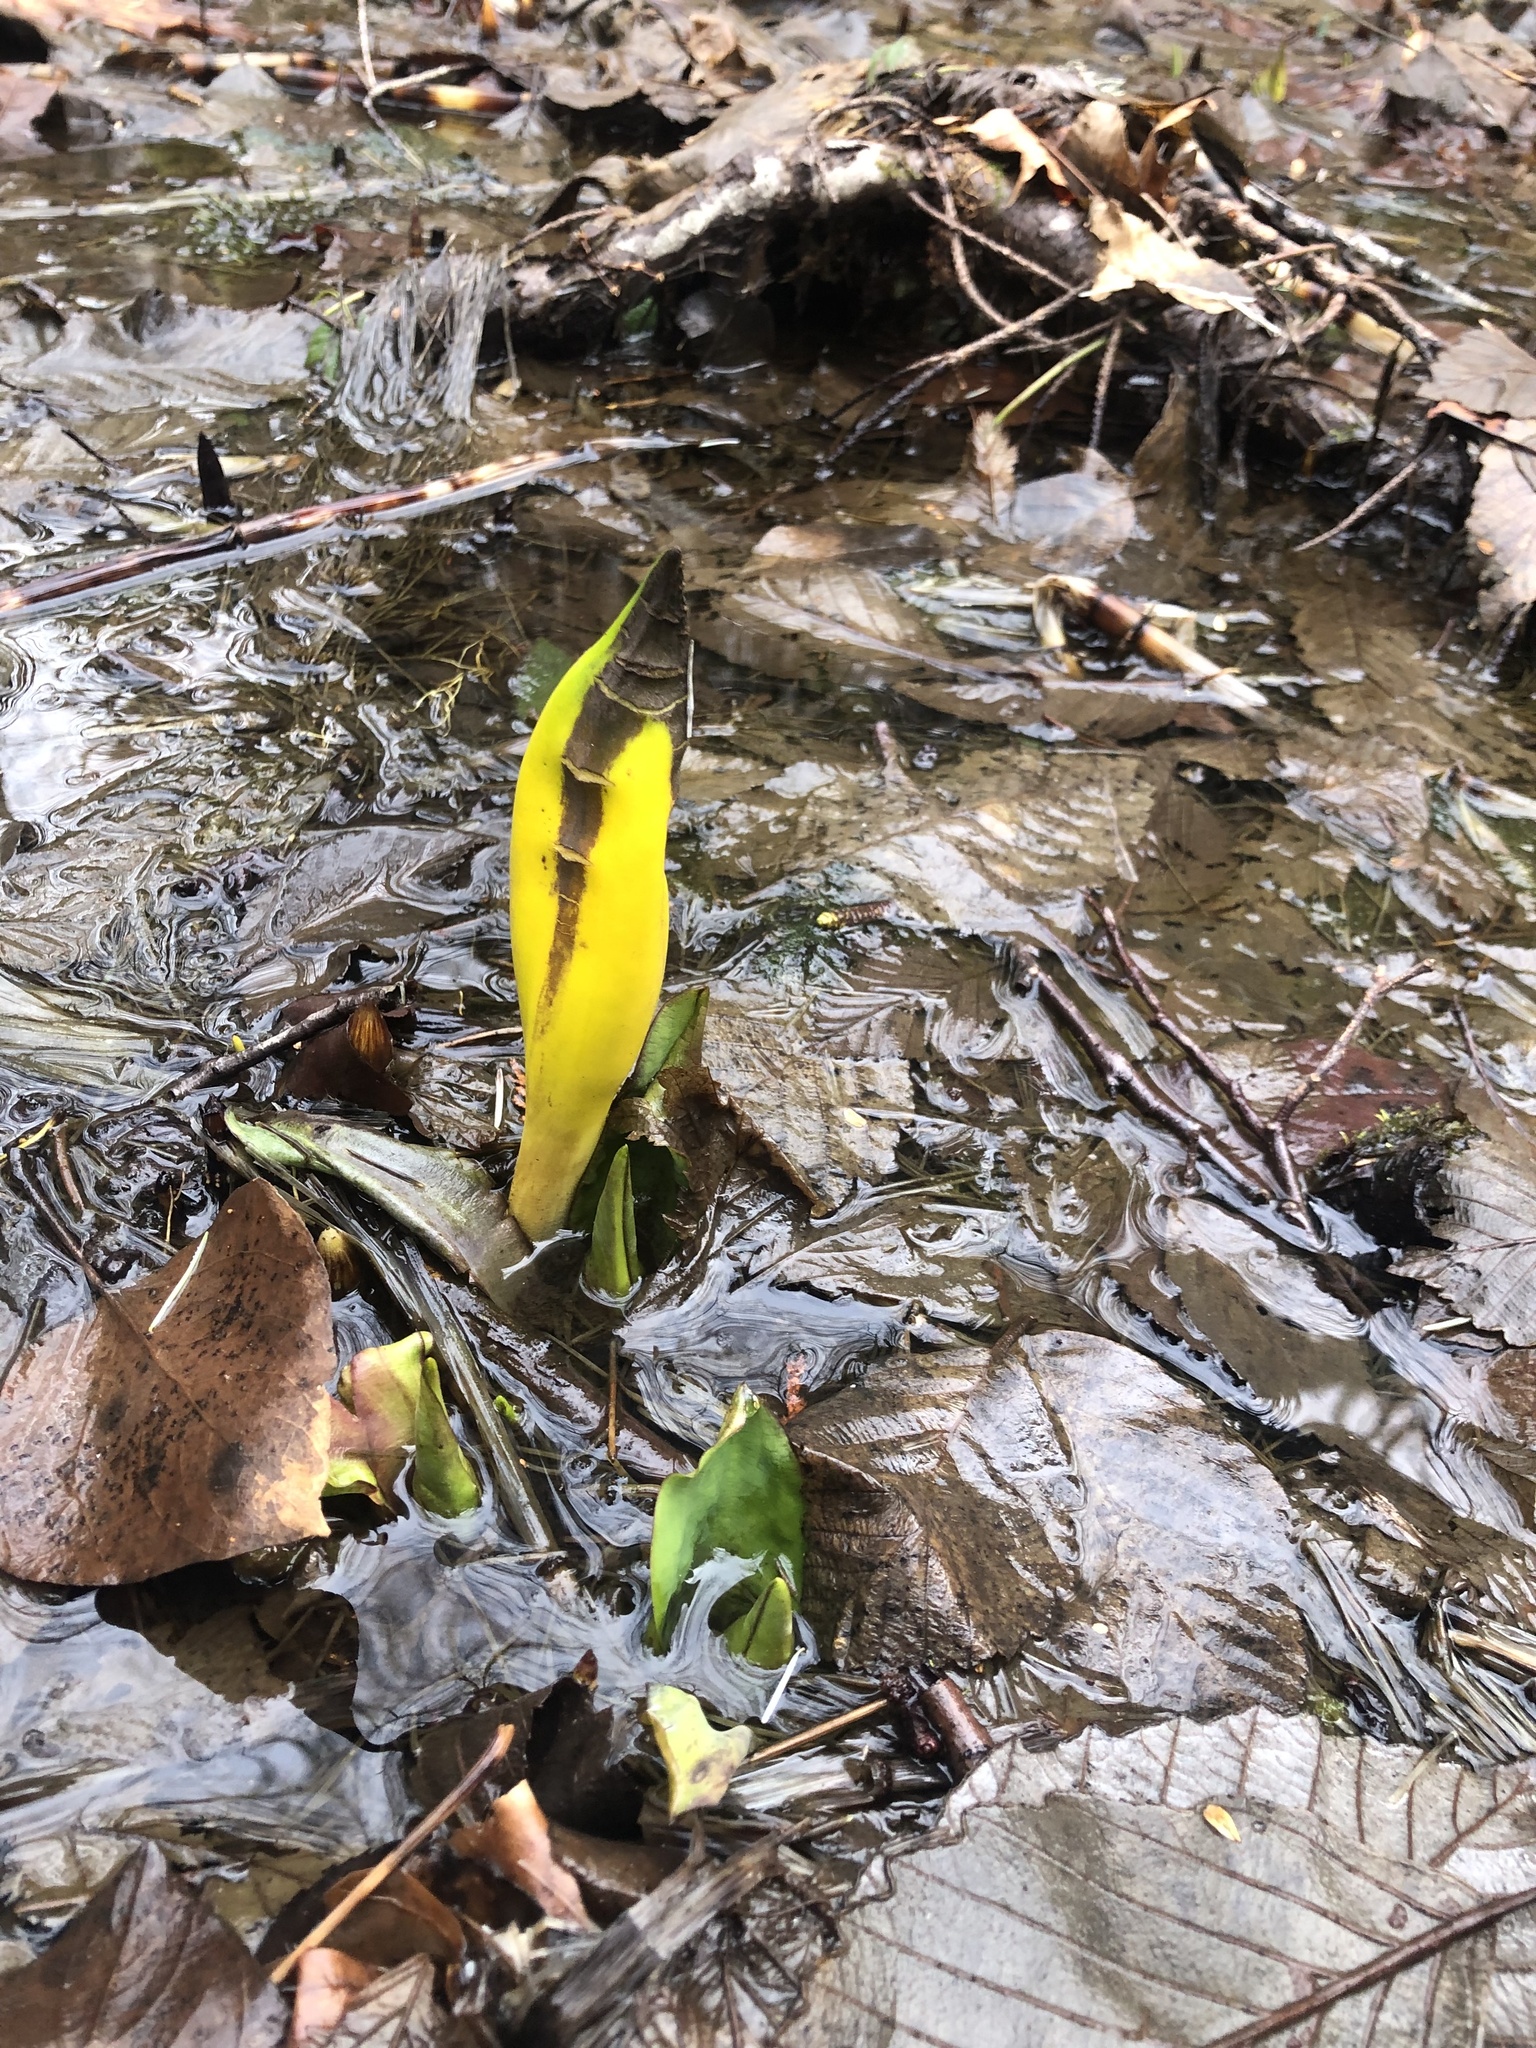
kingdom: Plantae
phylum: Tracheophyta
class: Liliopsida
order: Alismatales
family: Araceae
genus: Lysichiton
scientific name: Lysichiton americanus
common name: American skunk cabbage
